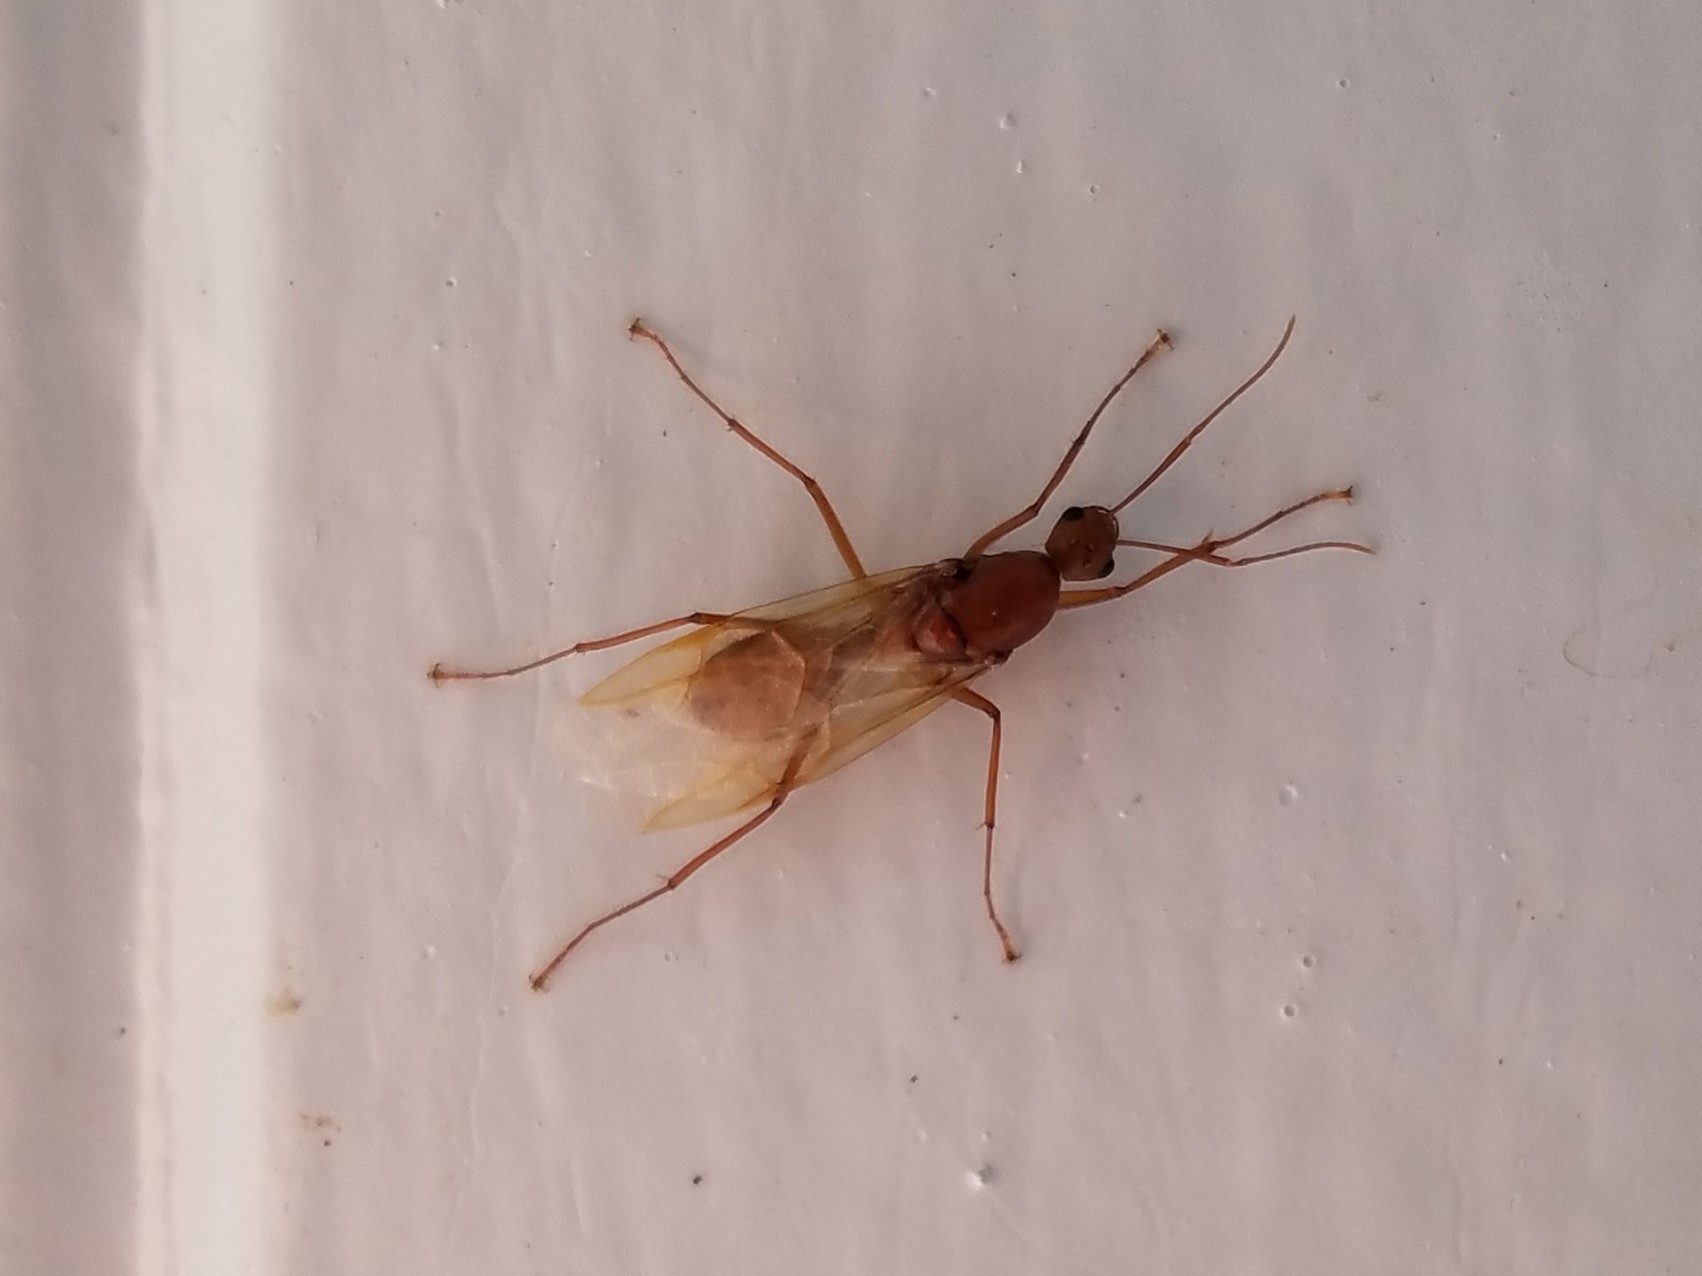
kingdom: Animalia
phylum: Arthropoda
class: Insecta
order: Hymenoptera
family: Formicidae
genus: Camponotus
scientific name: Camponotus castaneus
